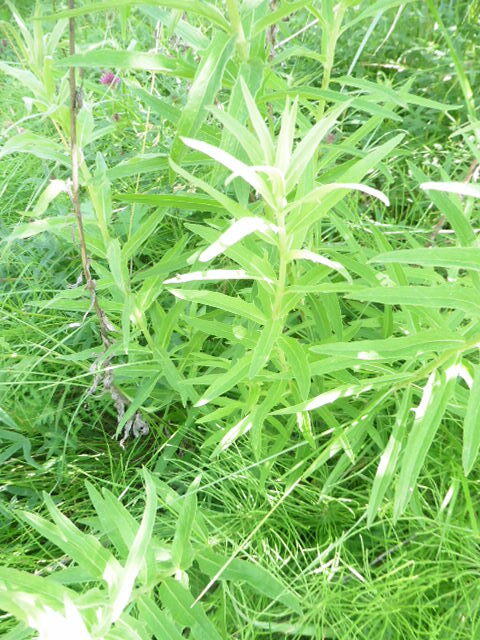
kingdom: Plantae
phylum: Tracheophyta
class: Magnoliopsida
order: Asterales
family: Asteraceae
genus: Hieracium
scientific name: Hieracium umbellatum
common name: Northern hawkweed
